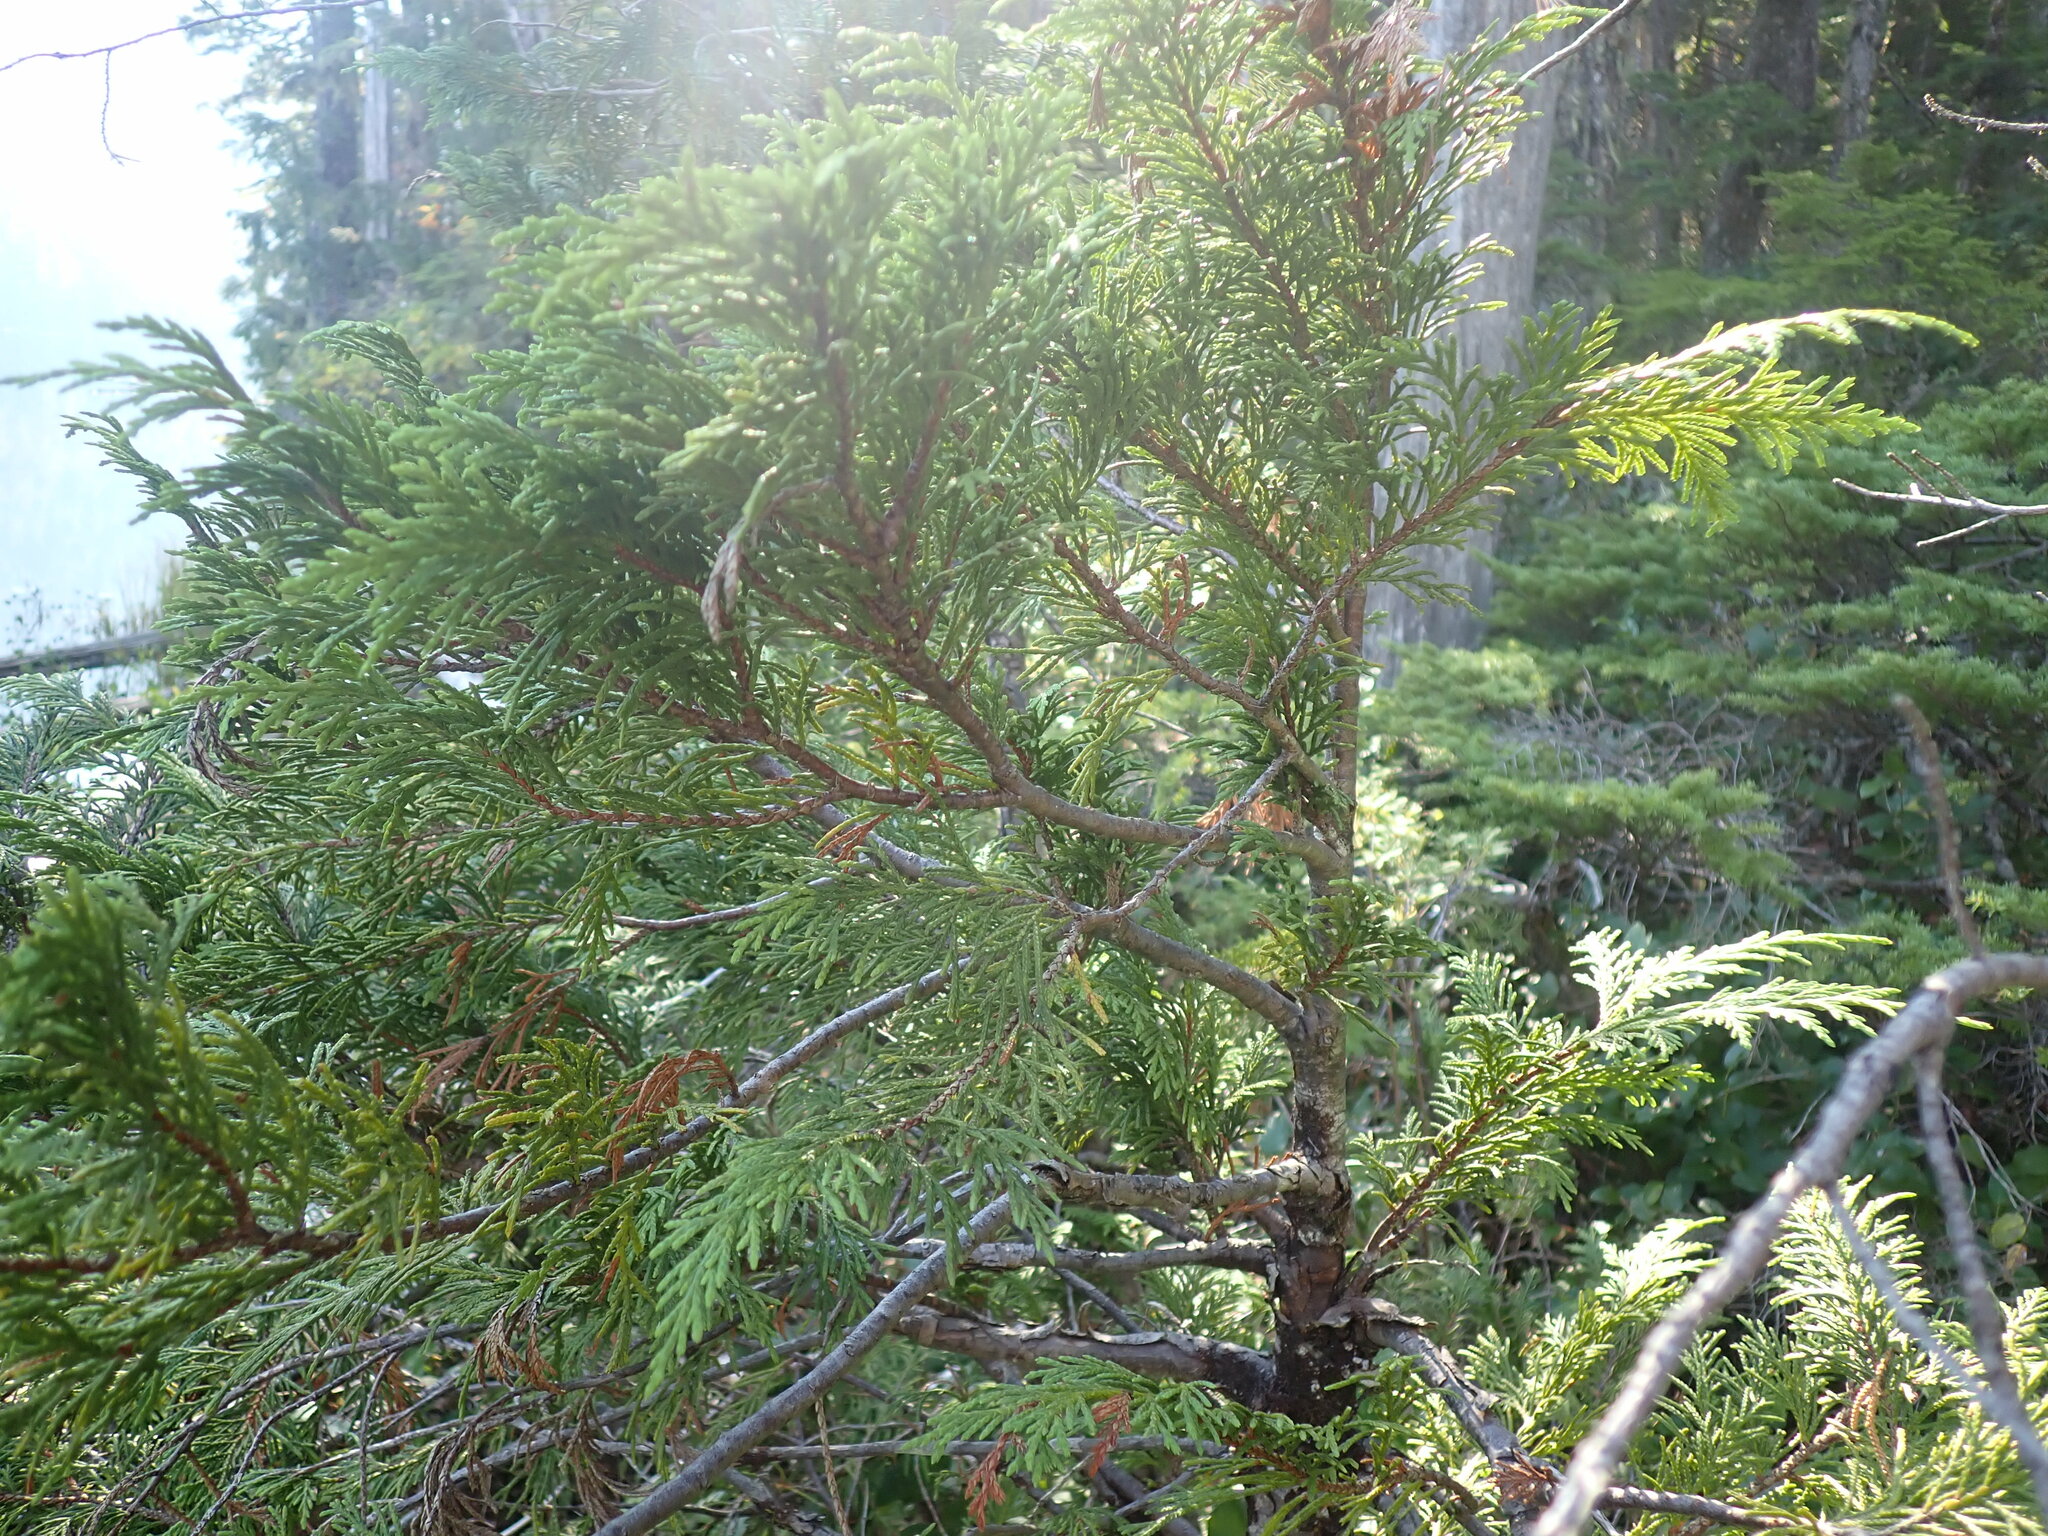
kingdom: Plantae
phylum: Tracheophyta
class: Pinopsida
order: Pinales
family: Cupressaceae
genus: Xanthocyparis
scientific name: Xanthocyparis nootkatensis
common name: Nootka cypress
